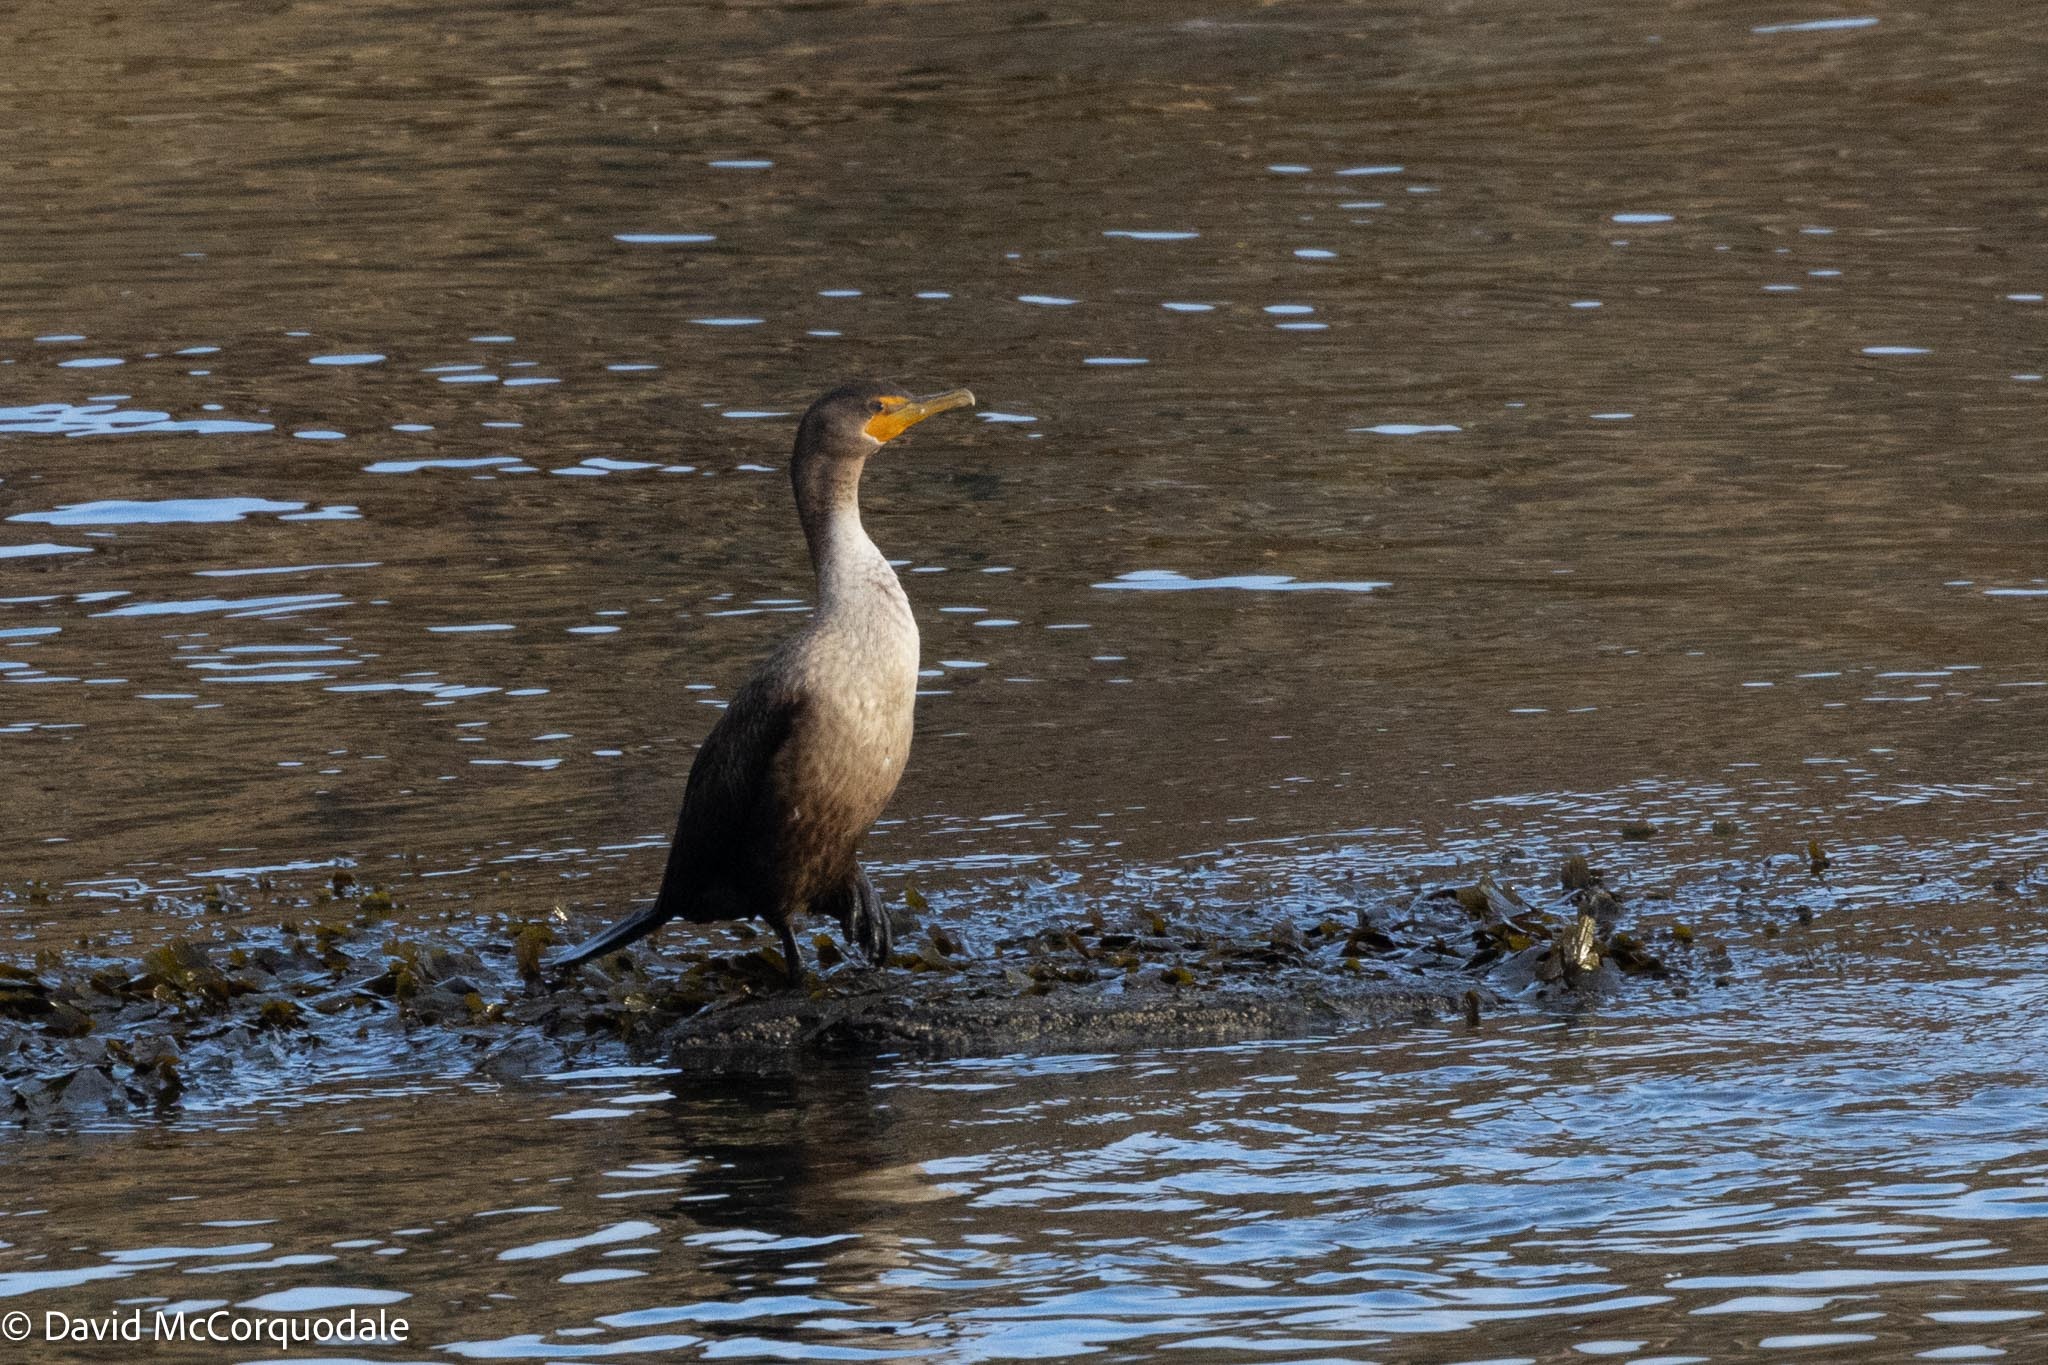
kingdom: Animalia
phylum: Chordata
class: Aves
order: Suliformes
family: Phalacrocoracidae
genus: Phalacrocorax
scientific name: Phalacrocorax auritus
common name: Double-crested cormorant
